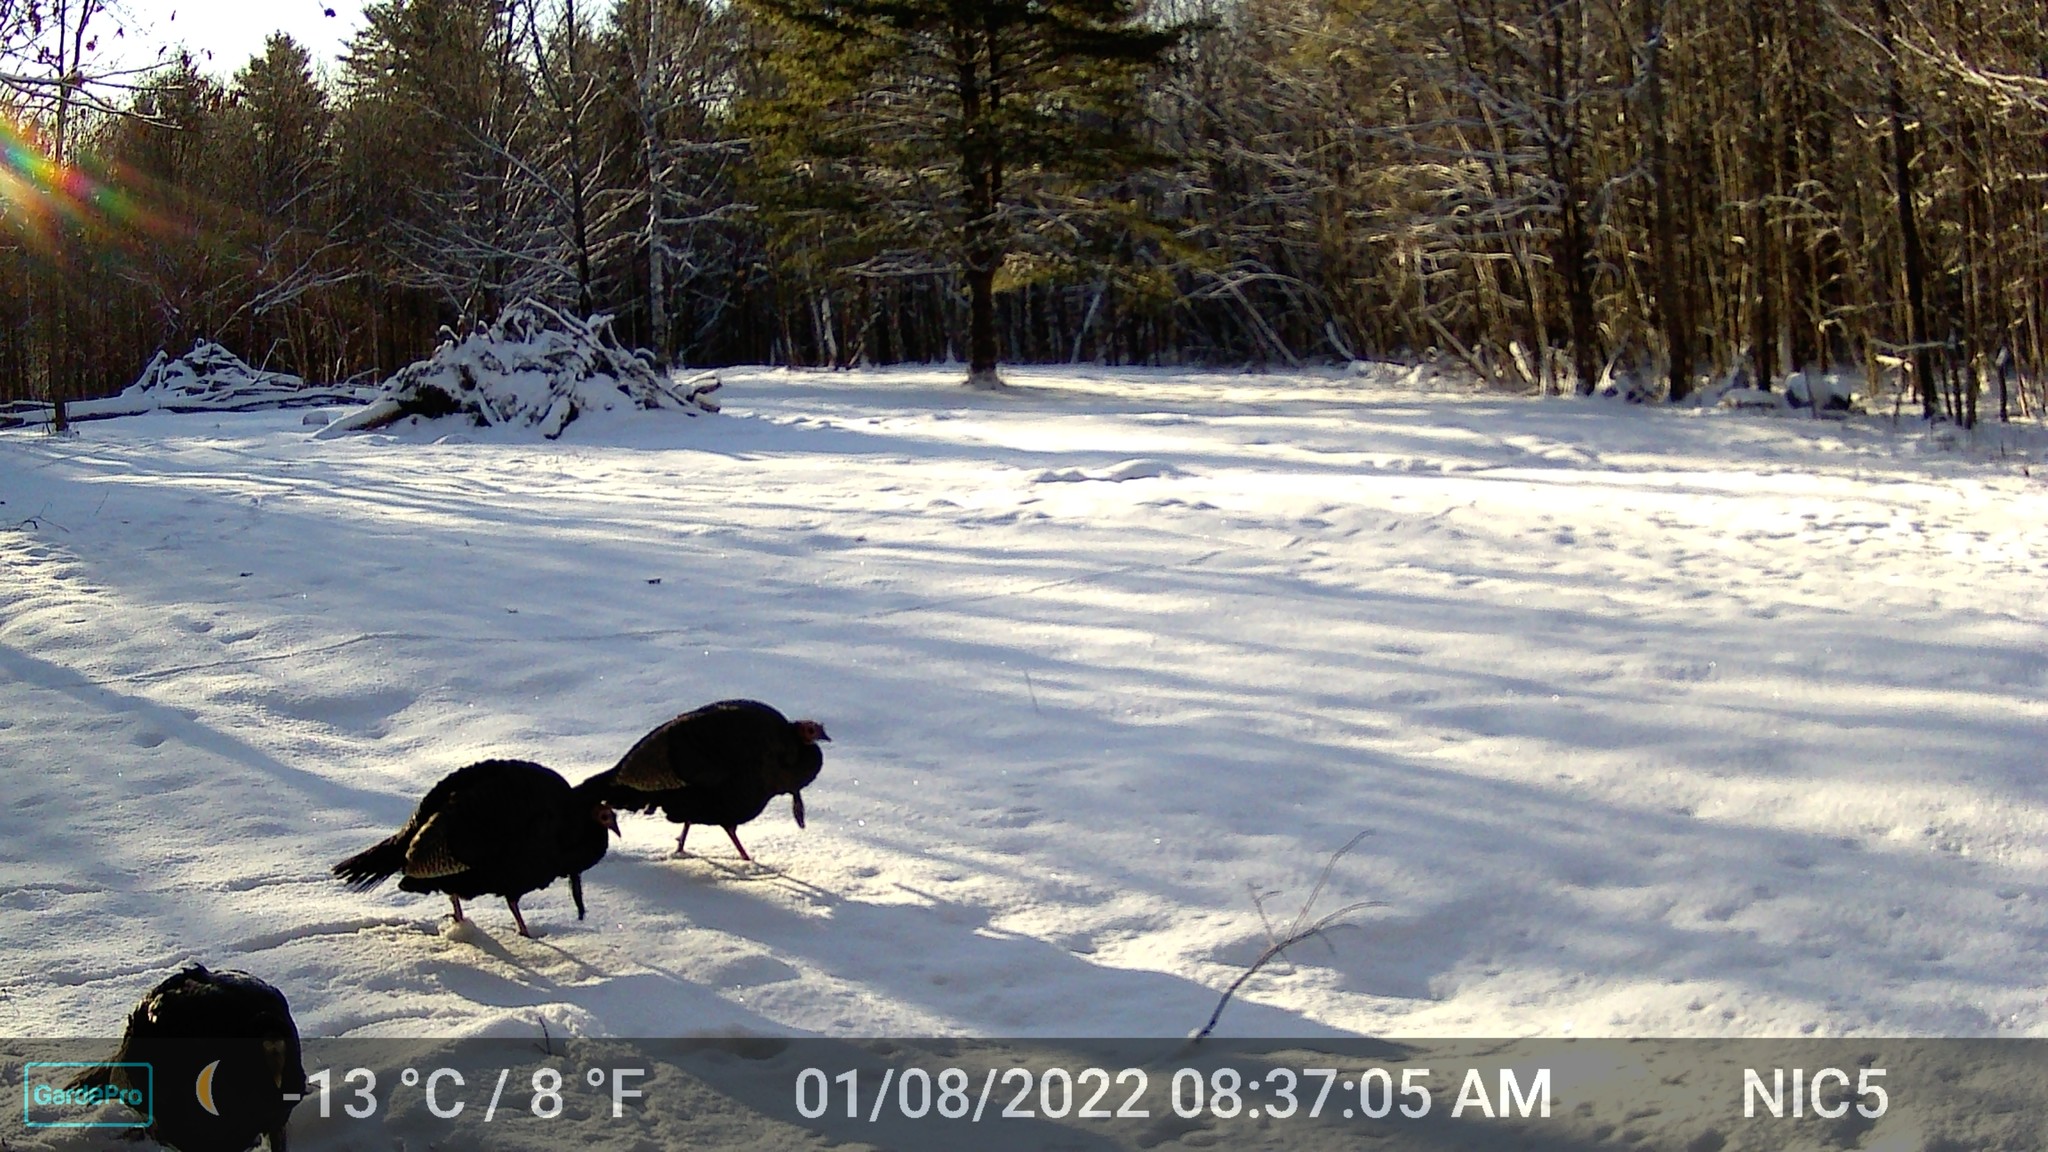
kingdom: Animalia
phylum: Chordata
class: Aves
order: Galliformes
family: Phasianidae
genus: Meleagris
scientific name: Meleagris gallopavo
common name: Wild turkey
